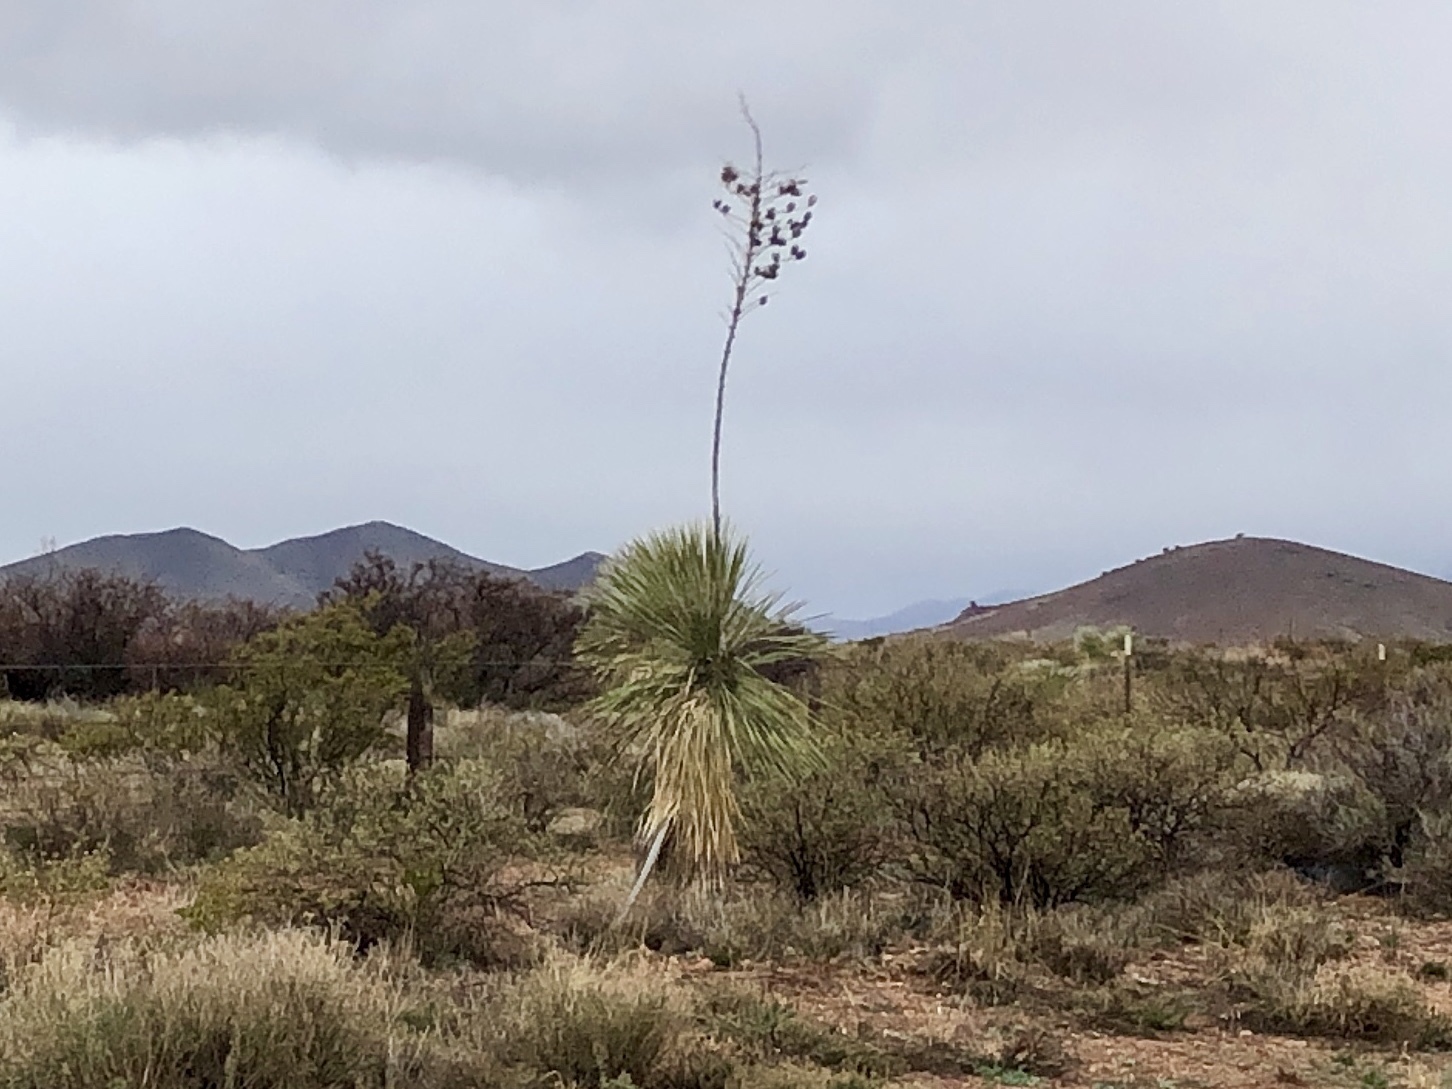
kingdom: Plantae
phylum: Tracheophyta
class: Liliopsida
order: Asparagales
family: Asparagaceae
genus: Yucca
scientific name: Yucca elata
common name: Palmella
